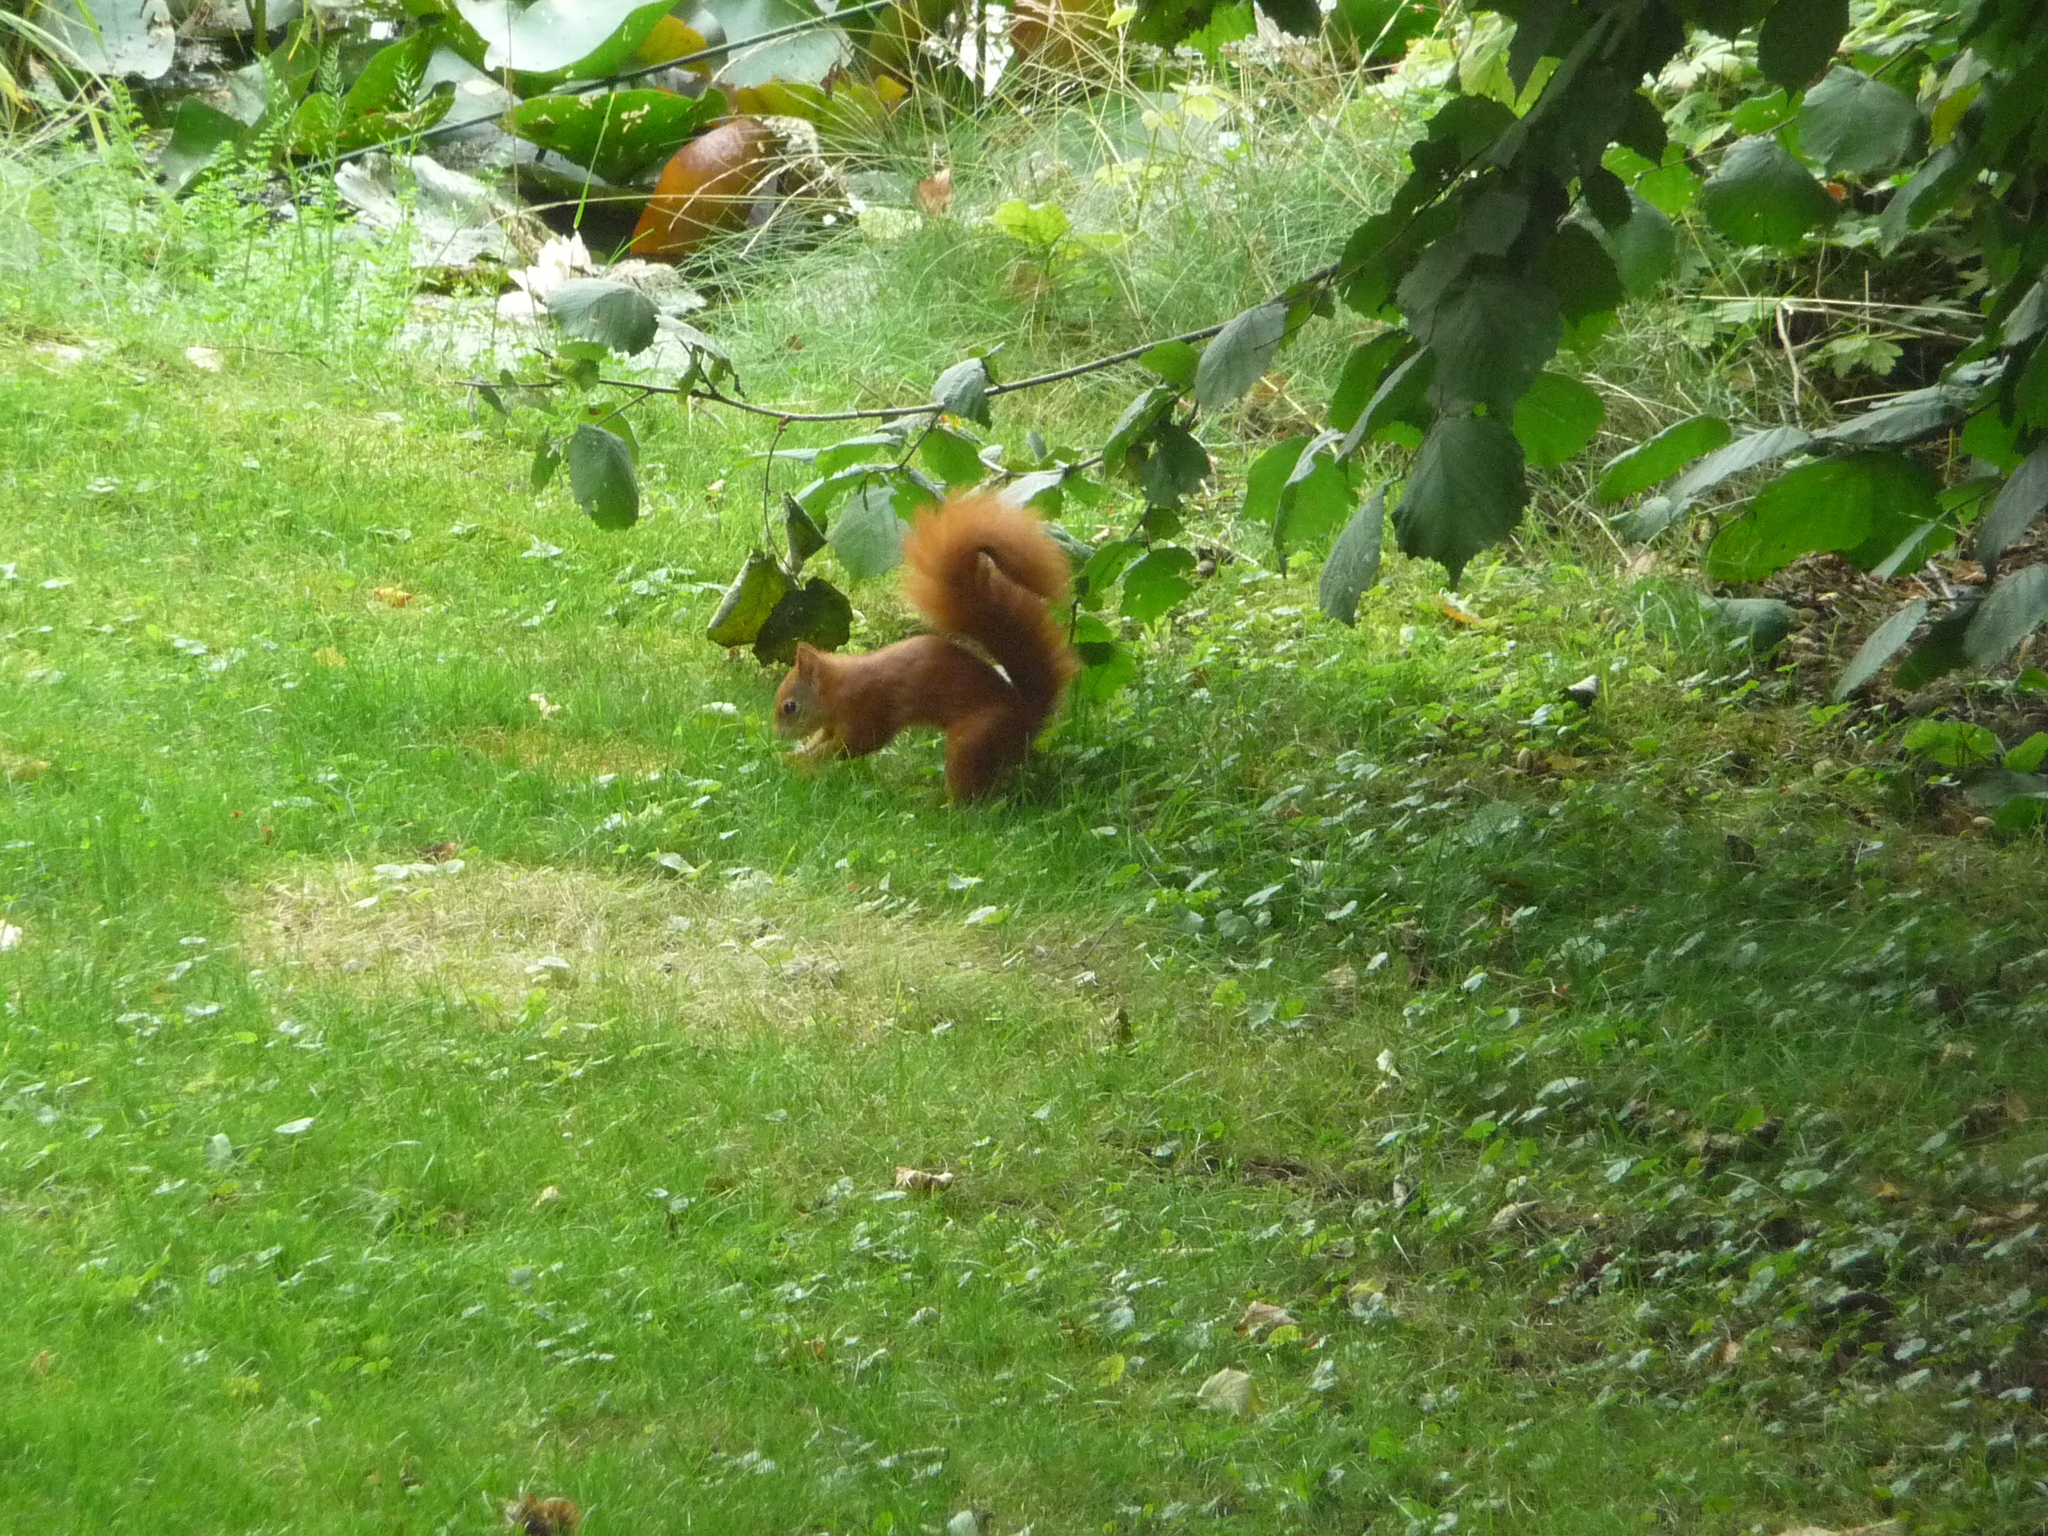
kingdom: Animalia
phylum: Chordata
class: Mammalia
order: Rodentia
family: Sciuridae
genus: Sciurus
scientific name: Sciurus vulgaris
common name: Eurasian red squirrel
